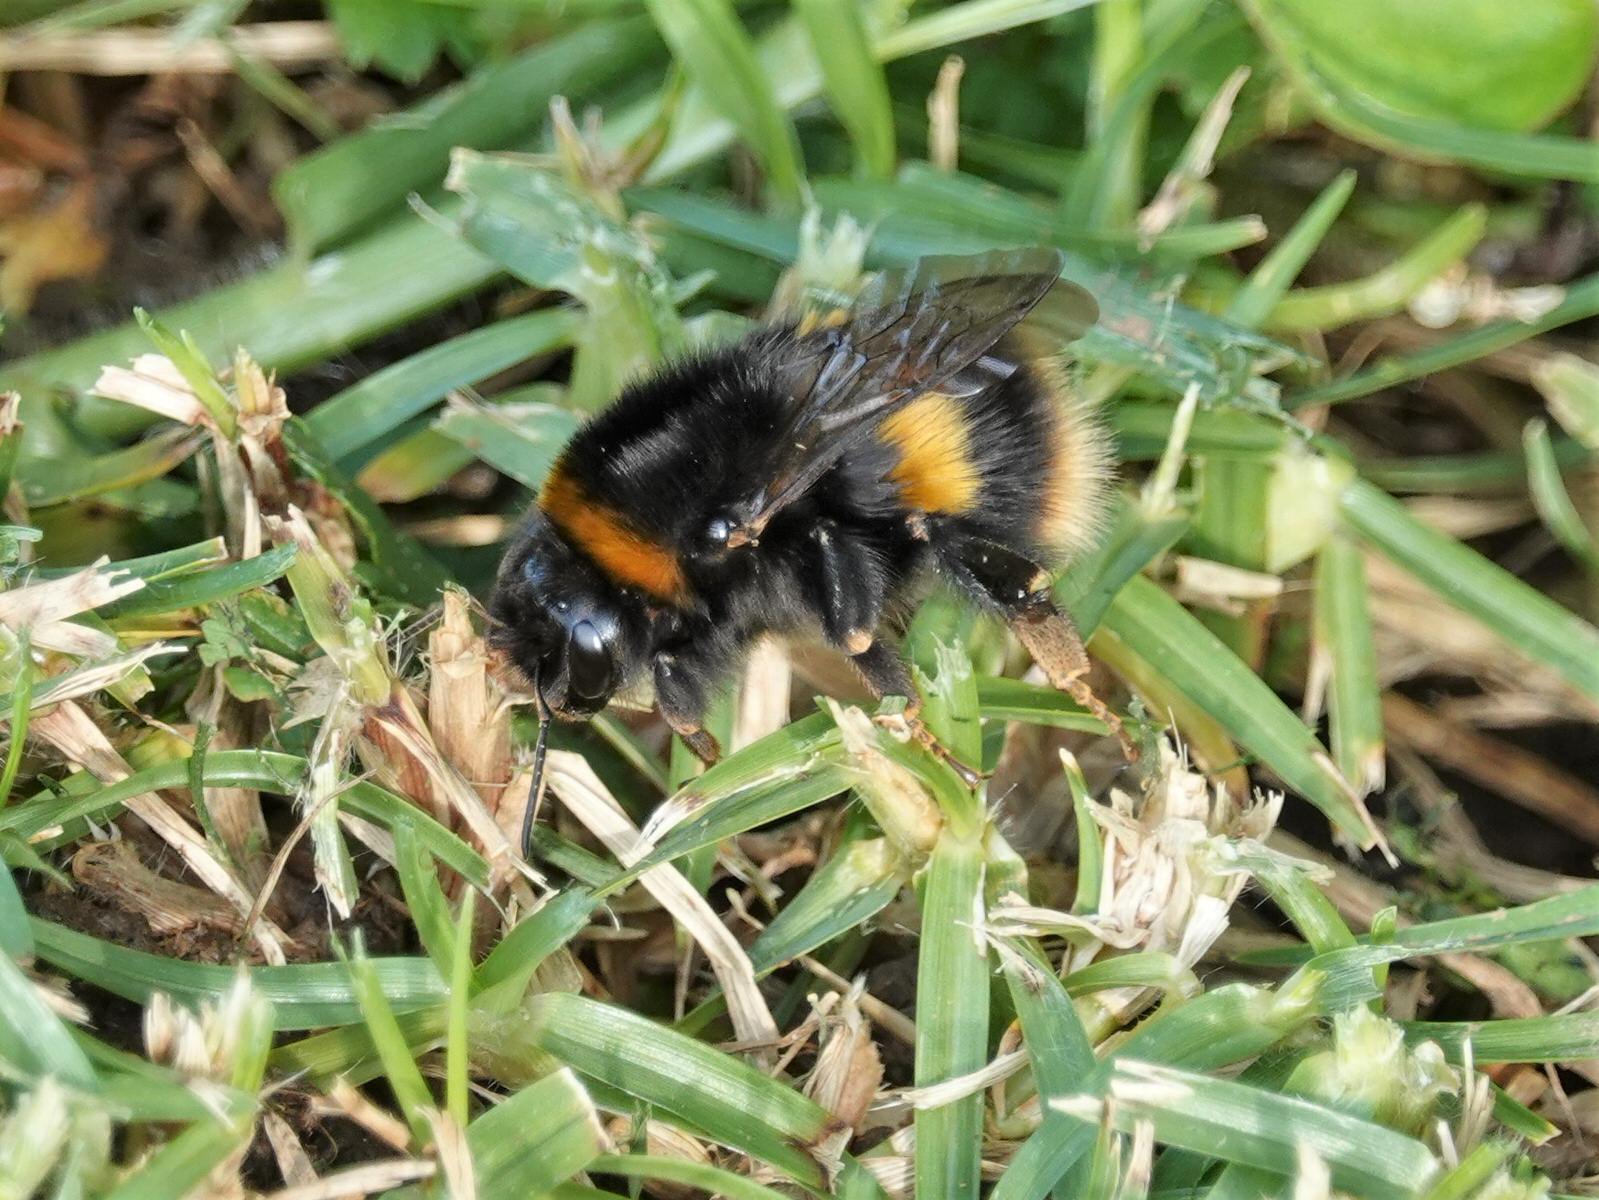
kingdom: Animalia
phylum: Arthropoda
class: Insecta
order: Hymenoptera
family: Apidae
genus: Bombus
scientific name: Bombus terrestris
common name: Buff-tailed bumblebee
